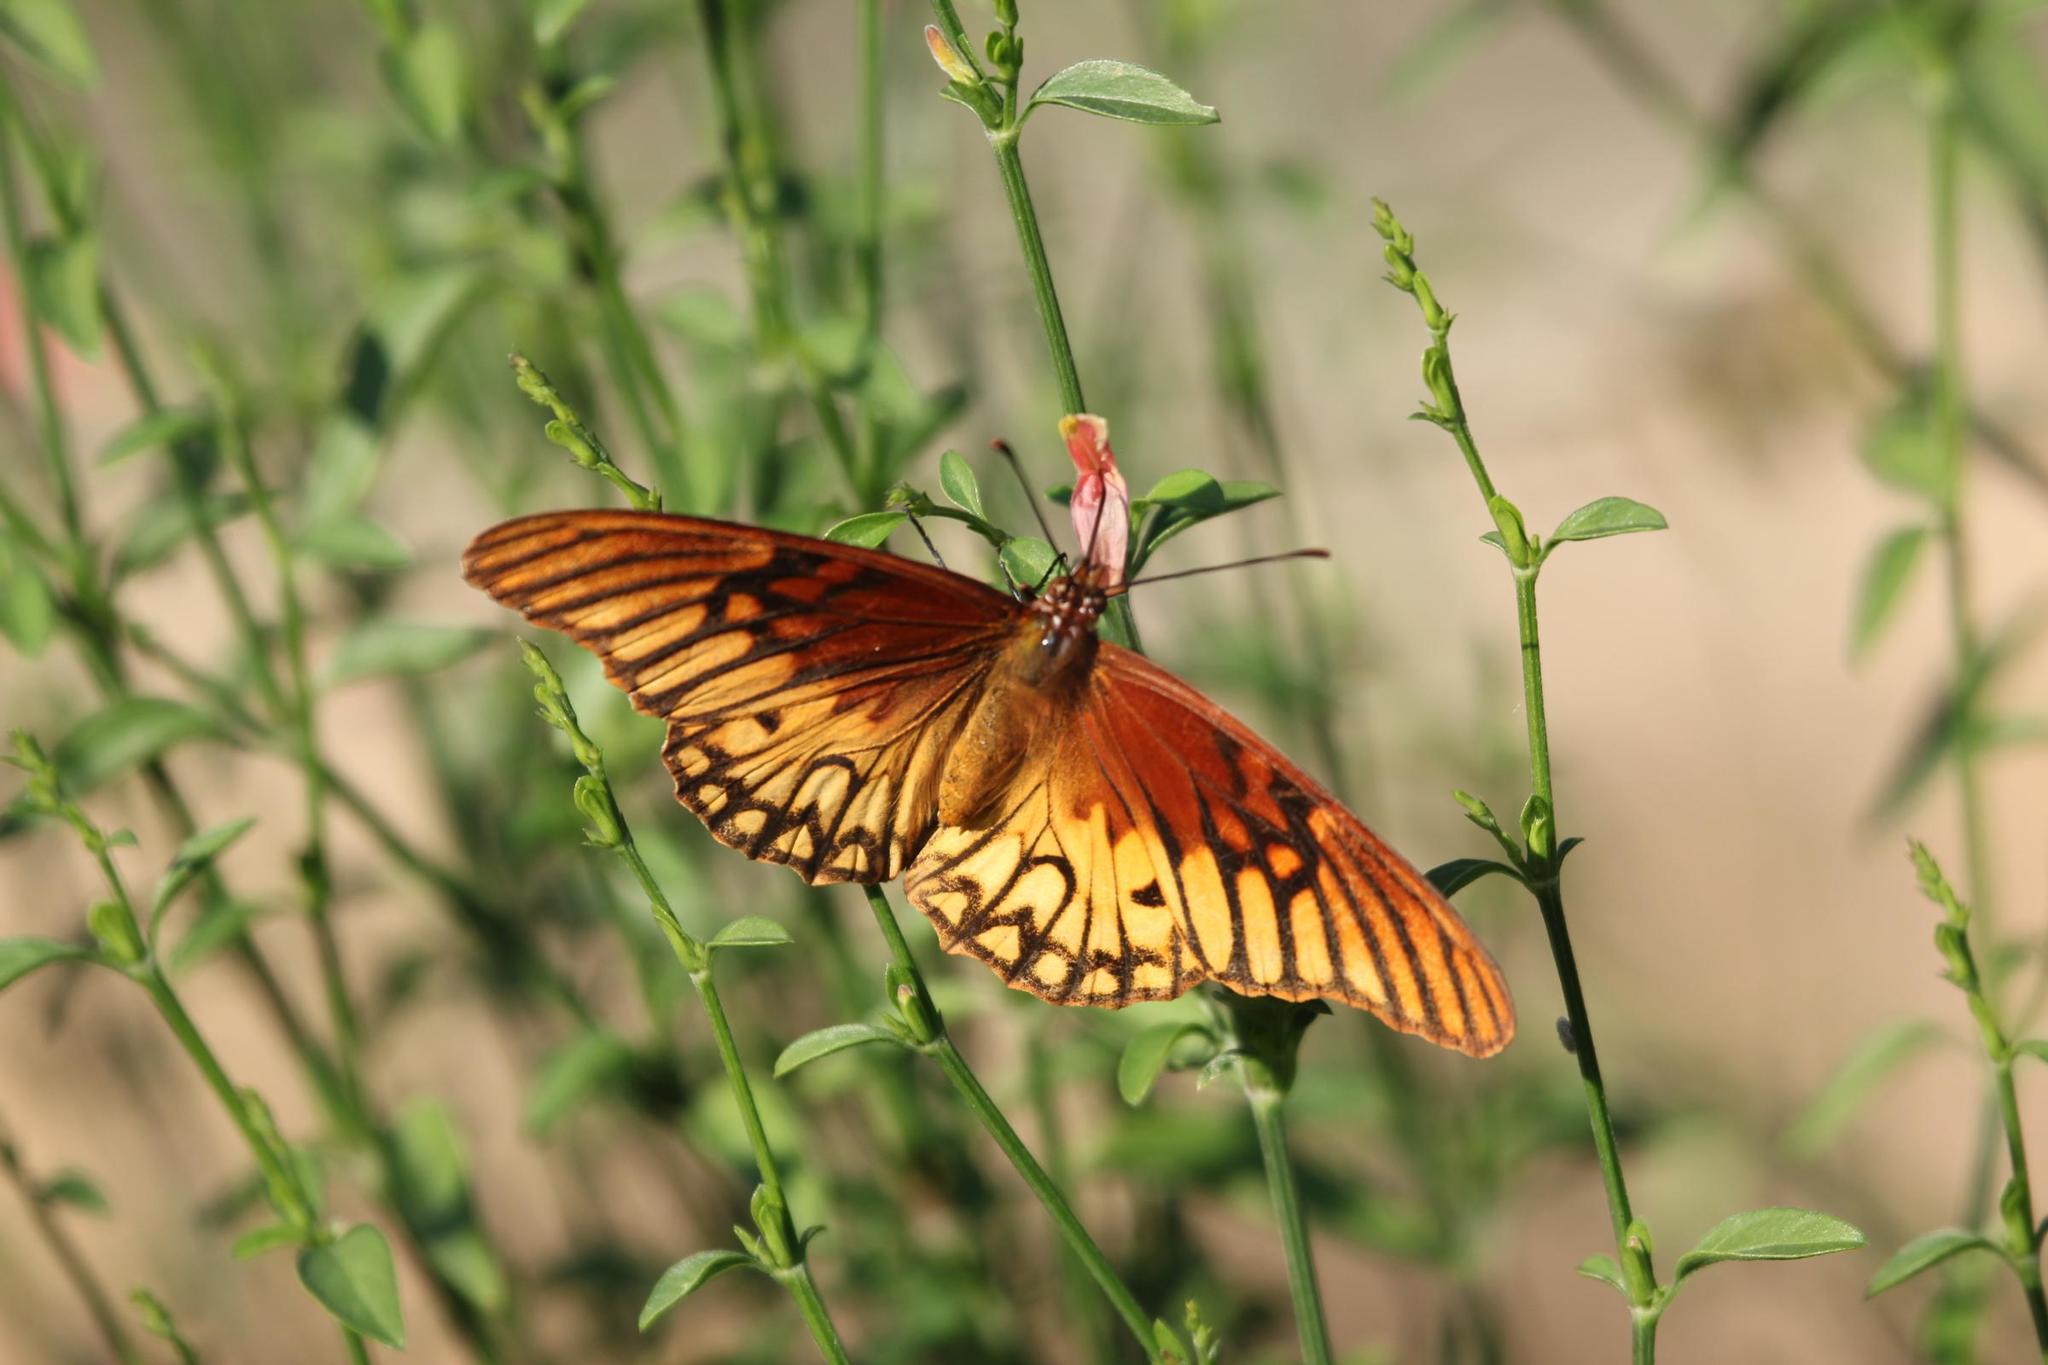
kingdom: Animalia
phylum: Arthropoda
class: Insecta
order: Lepidoptera
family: Nymphalidae
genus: Dione
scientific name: Dione moneta
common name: Mexican silverspot
